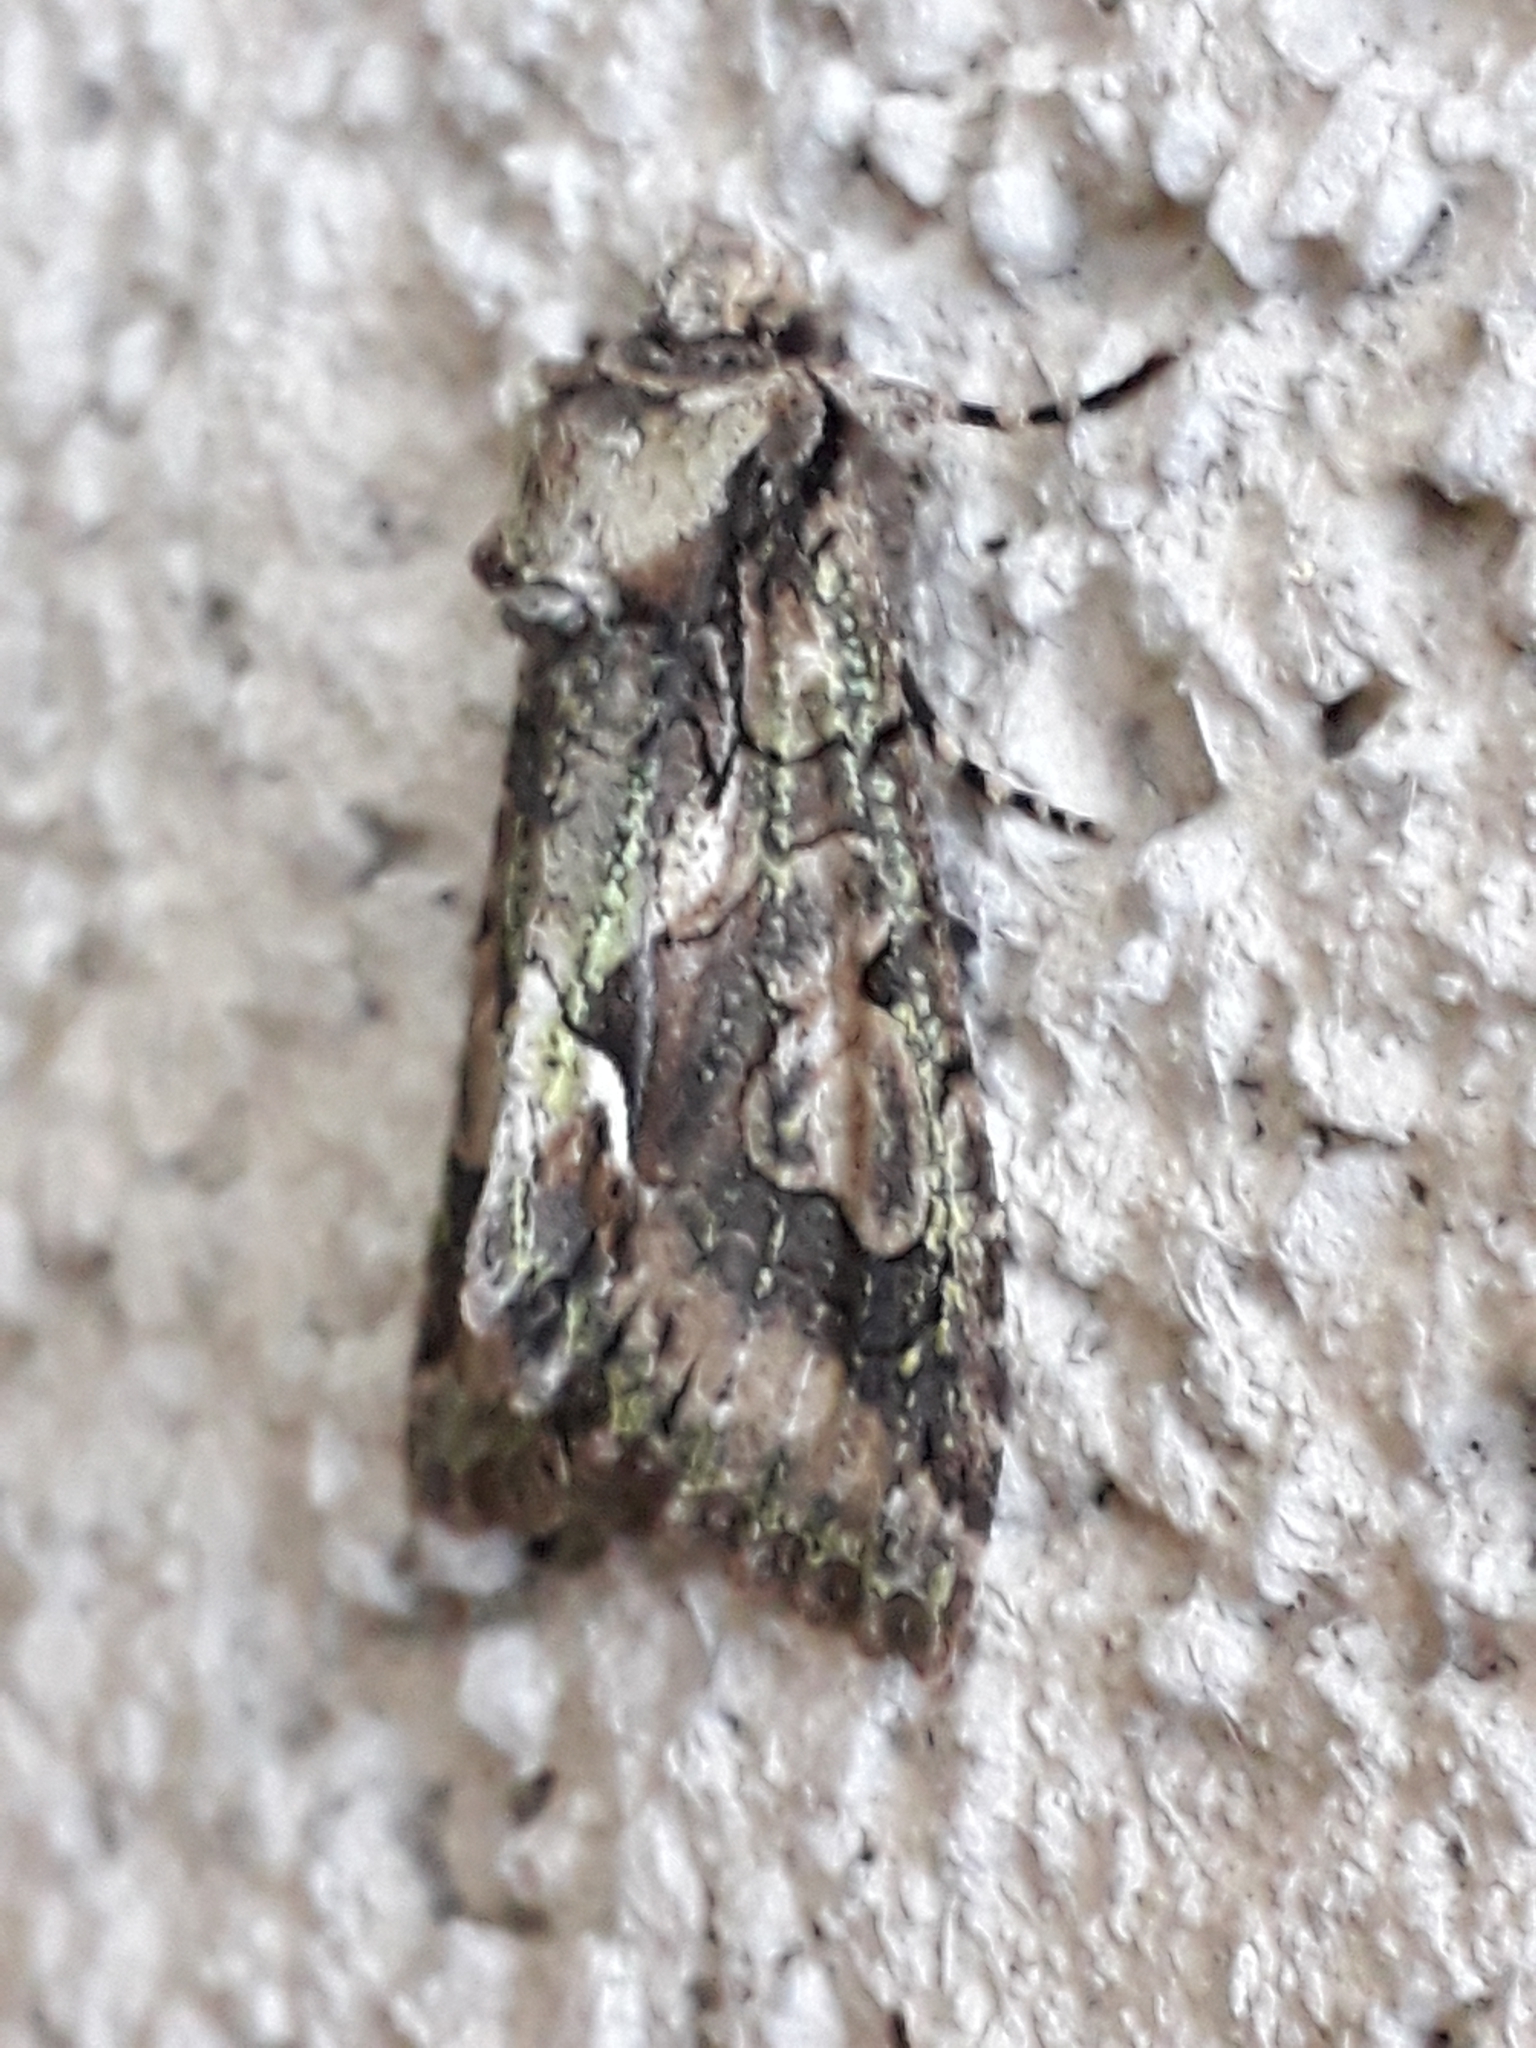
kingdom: Animalia
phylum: Arthropoda
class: Insecta
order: Lepidoptera
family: Noctuidae
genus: Allophyes
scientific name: Allophyes oxyacanthae
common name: Green-brindled crescent
